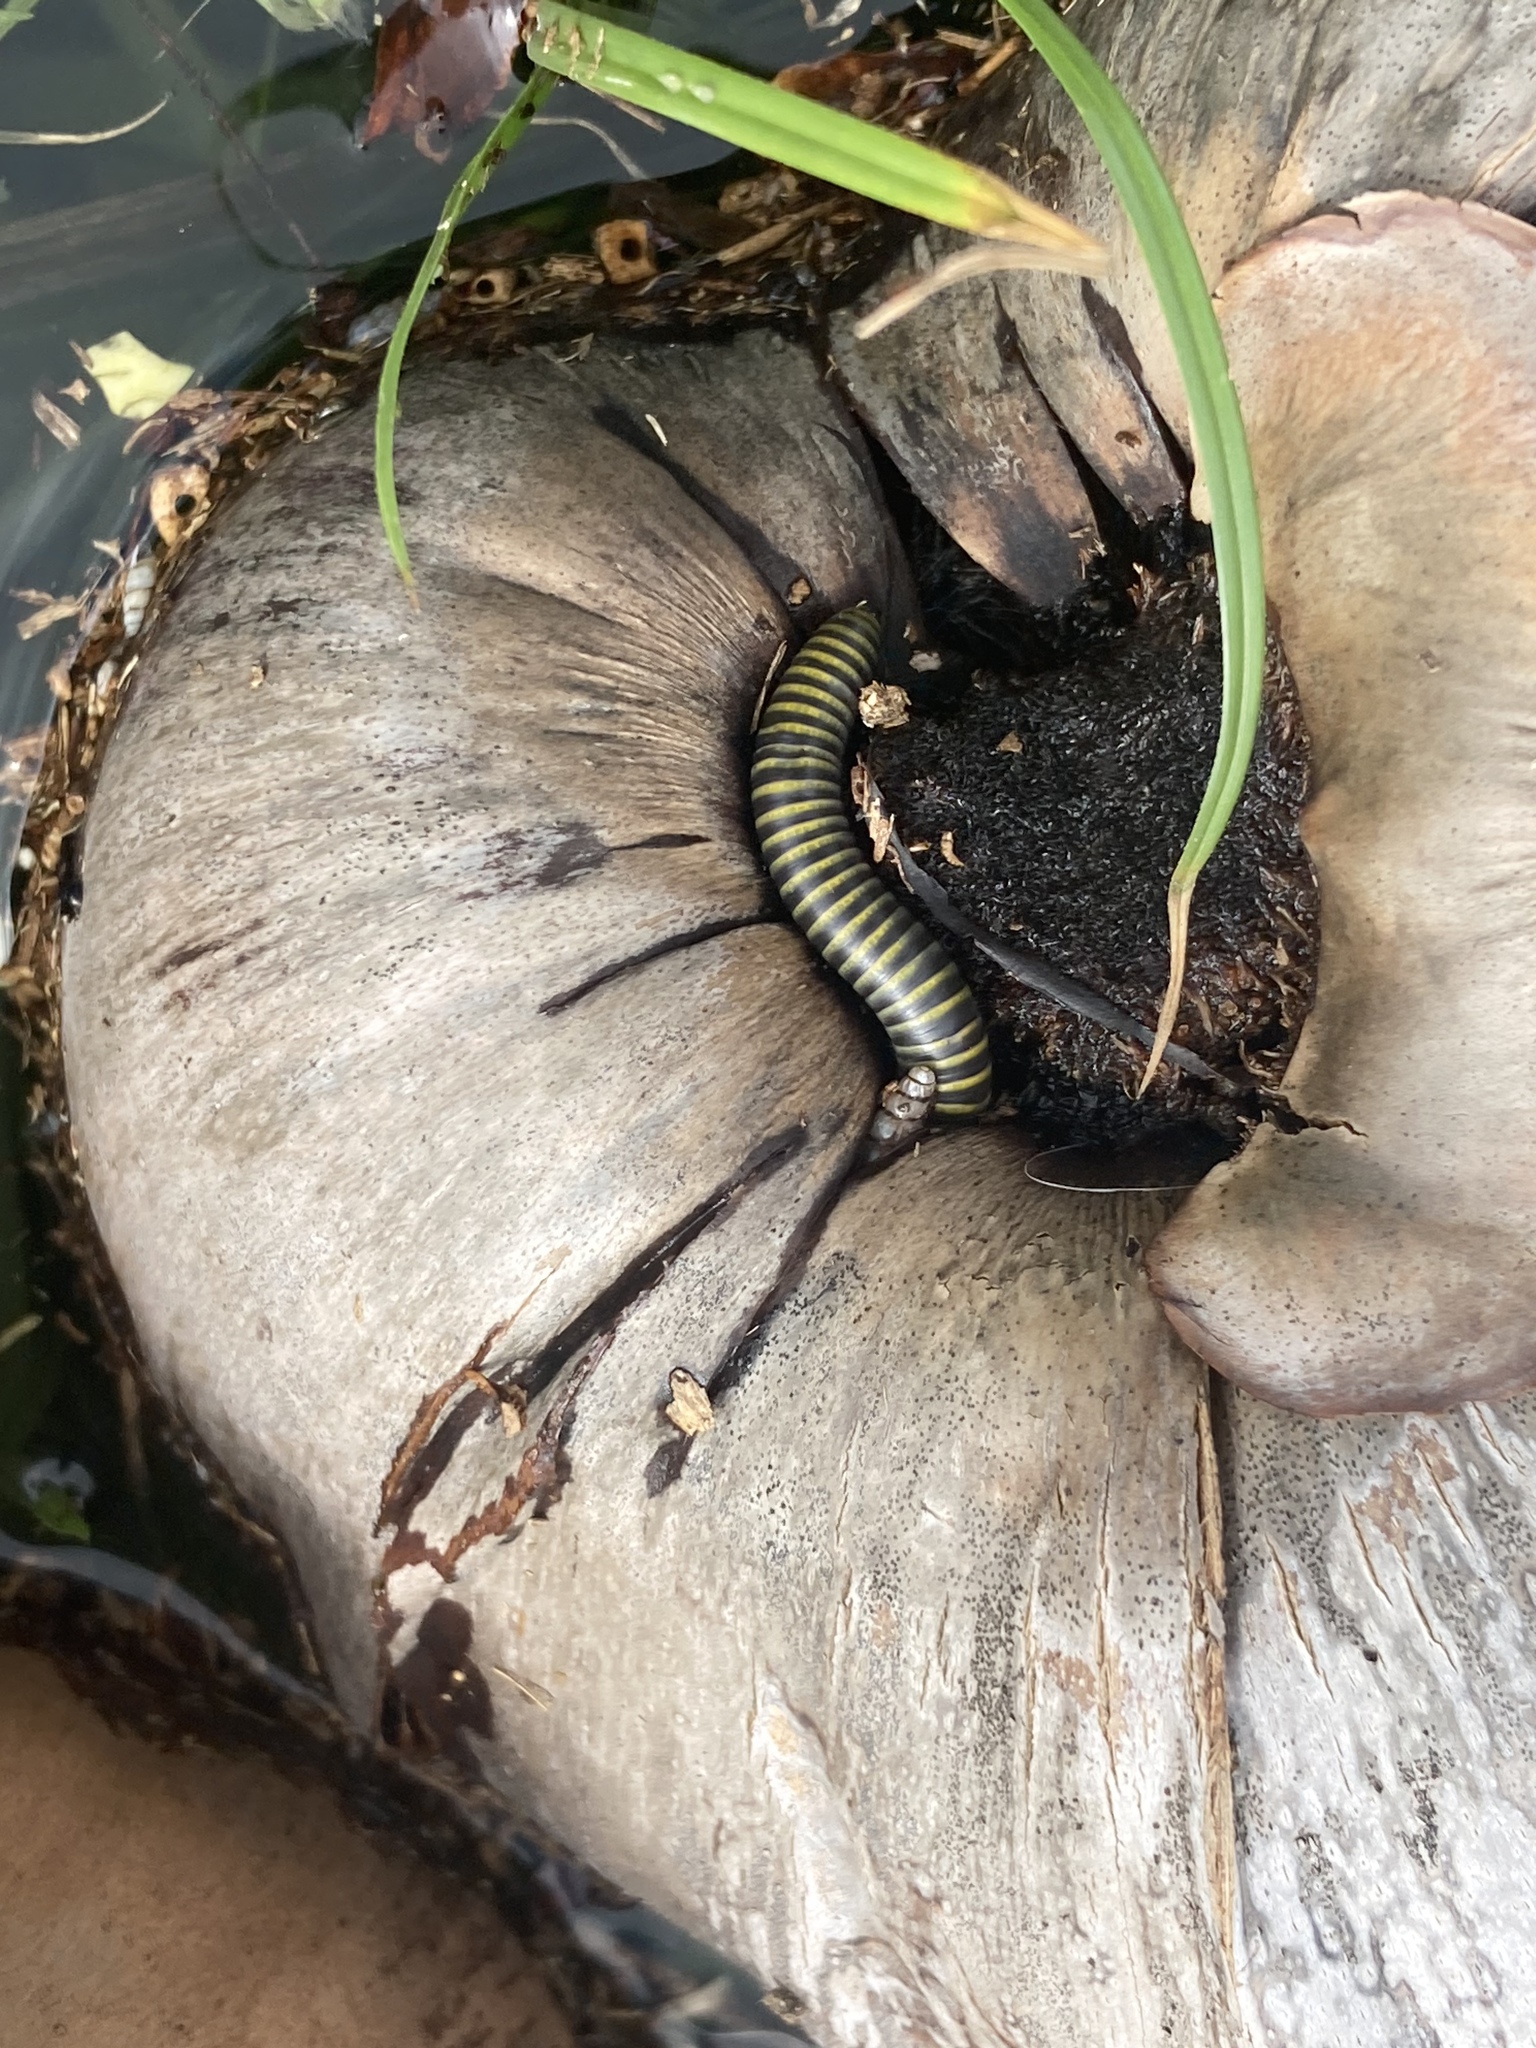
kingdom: Animalia
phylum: Arthropoda
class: Diplopoda
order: Spirobolida
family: Rhinocricidae
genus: Anadenobolus
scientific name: Anadenobolus monilicornis
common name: Caribbean millipede
